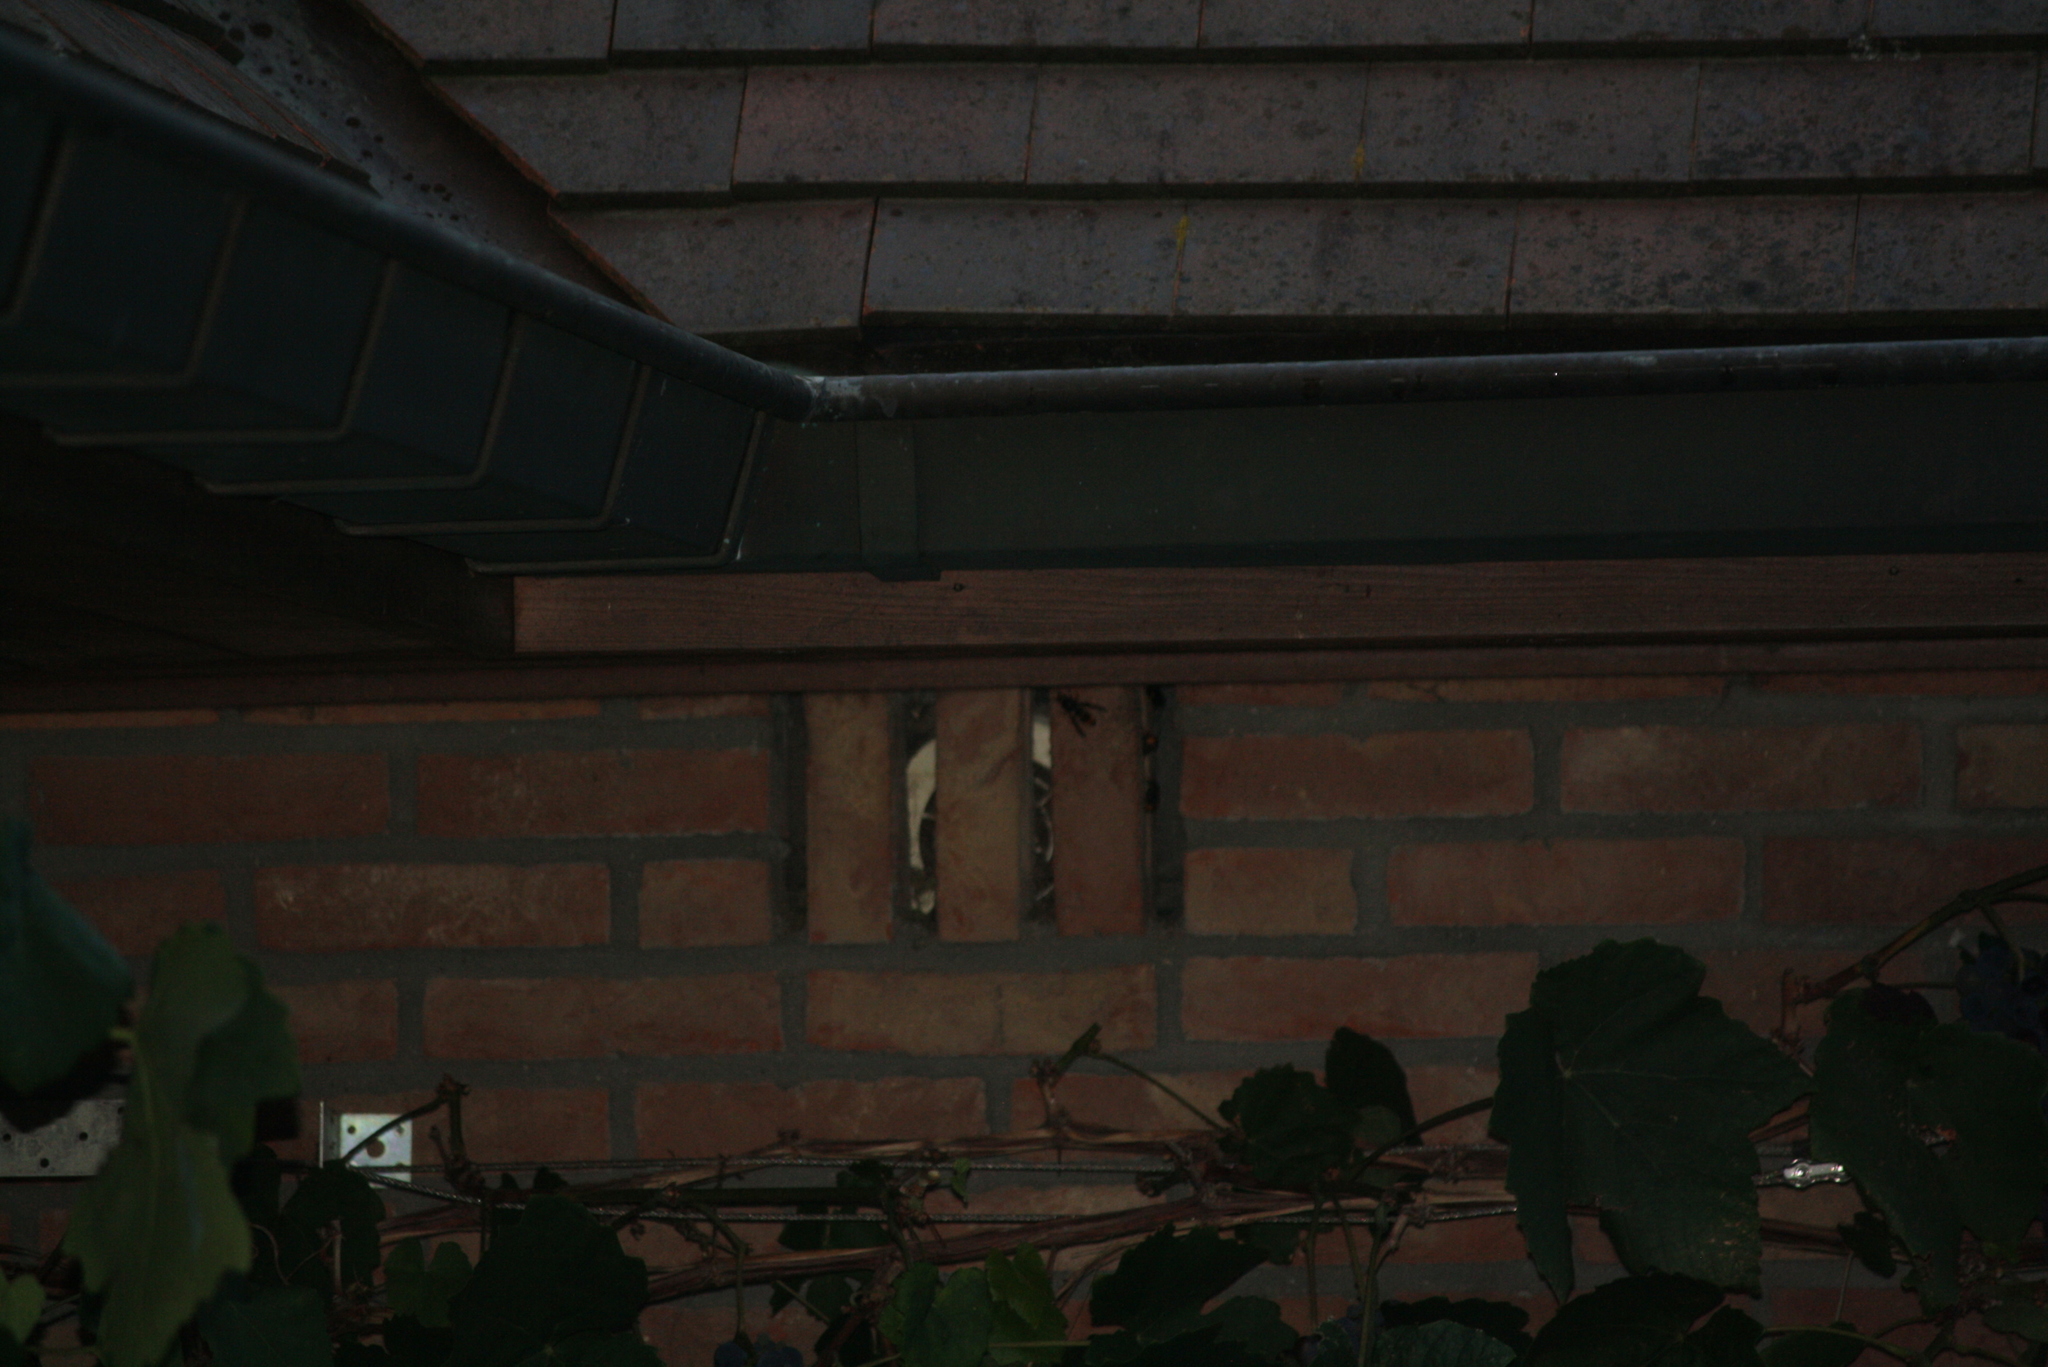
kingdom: Animalia
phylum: Arthropoda
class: Insecta
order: Hymenoptera
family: Vespidae
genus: Vespa
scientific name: Vespa velutina
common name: Asian hornet
